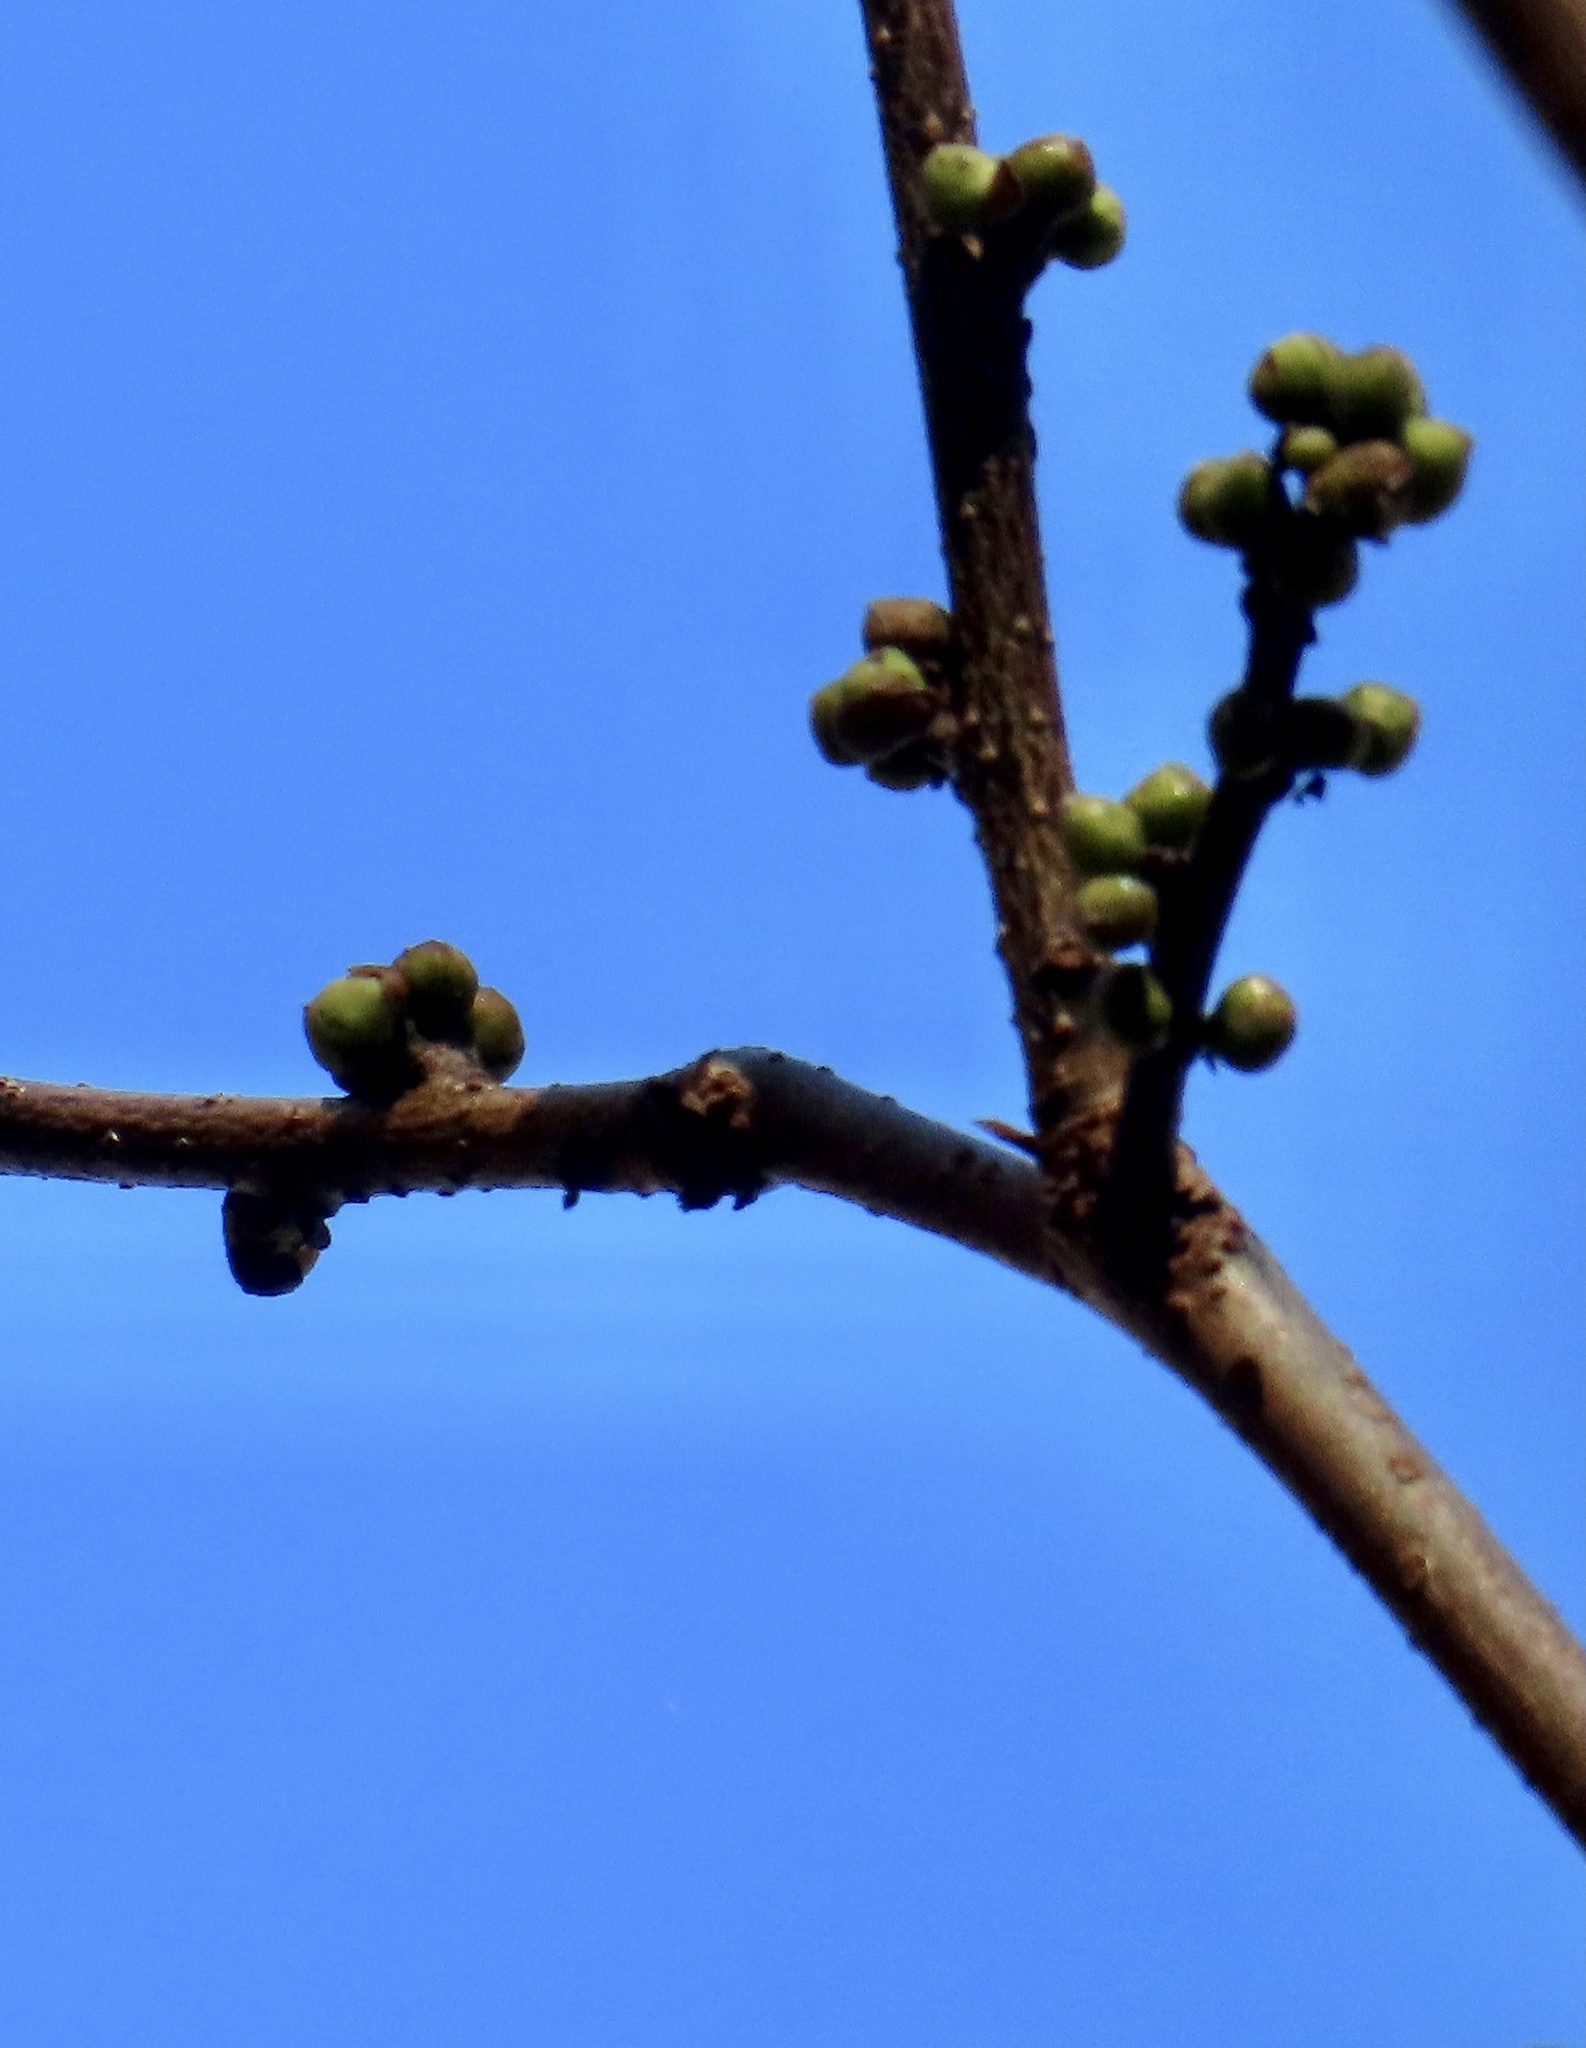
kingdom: Plantae
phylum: Tracheophyta
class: Magnoliopsida
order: Laurales
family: Lauraceae
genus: Lindera
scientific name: Lindera benzoin
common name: Spicebush
